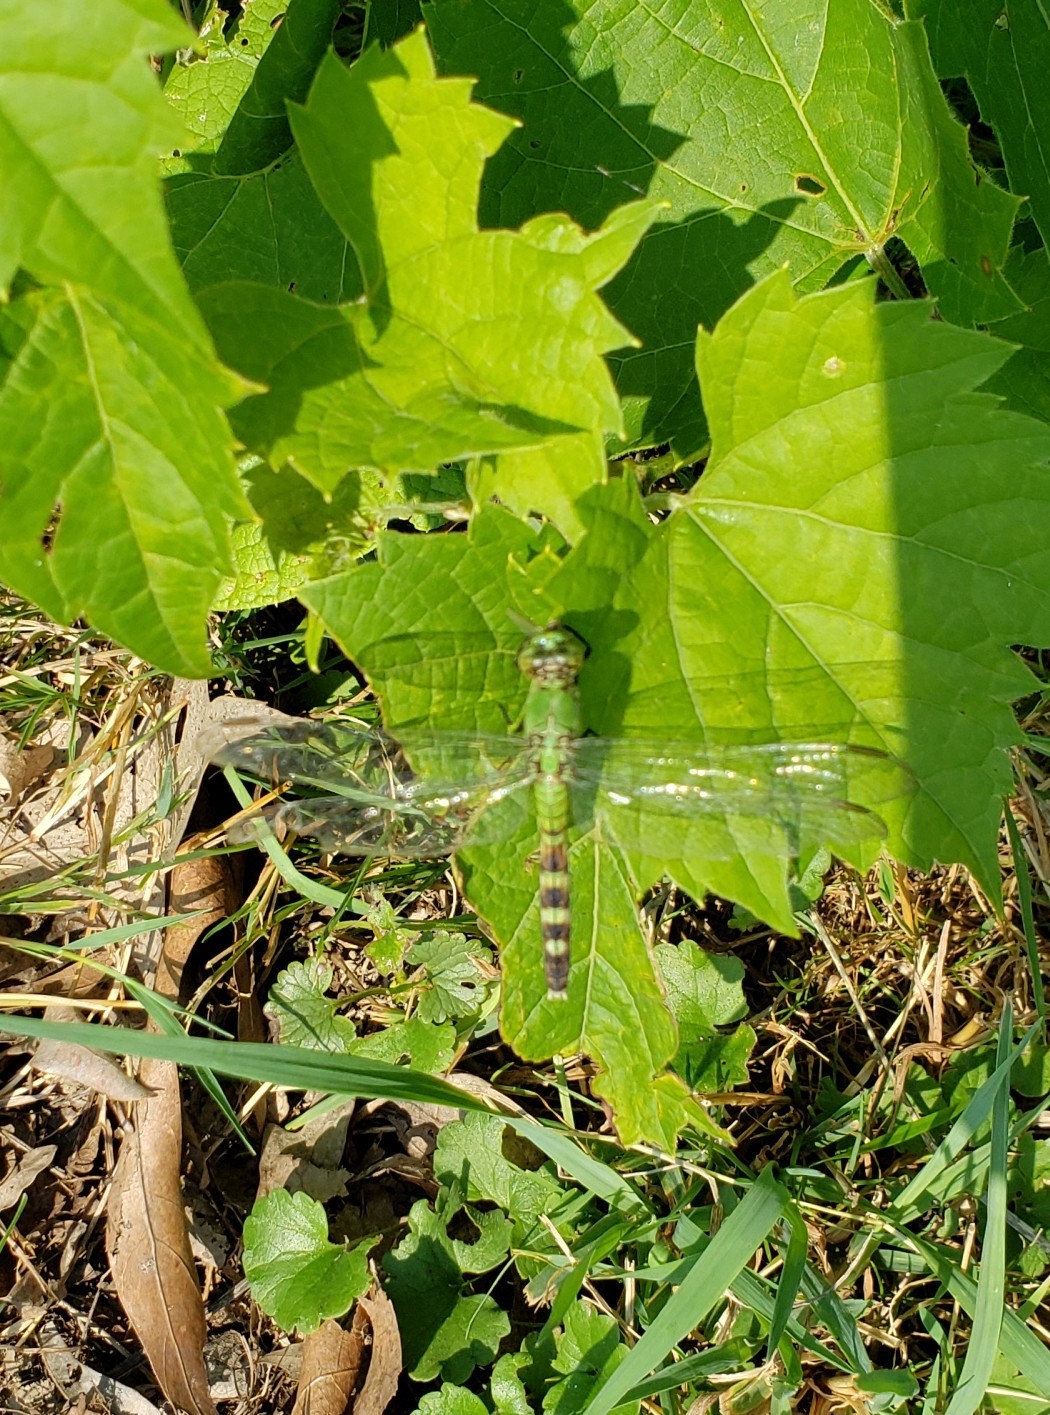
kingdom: Animalia
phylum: Arthropoda
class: Insecta
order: Odonata
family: Libellulidae
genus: Erythemis
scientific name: Erythemis simplicicollis
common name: Eastern pondhawk
